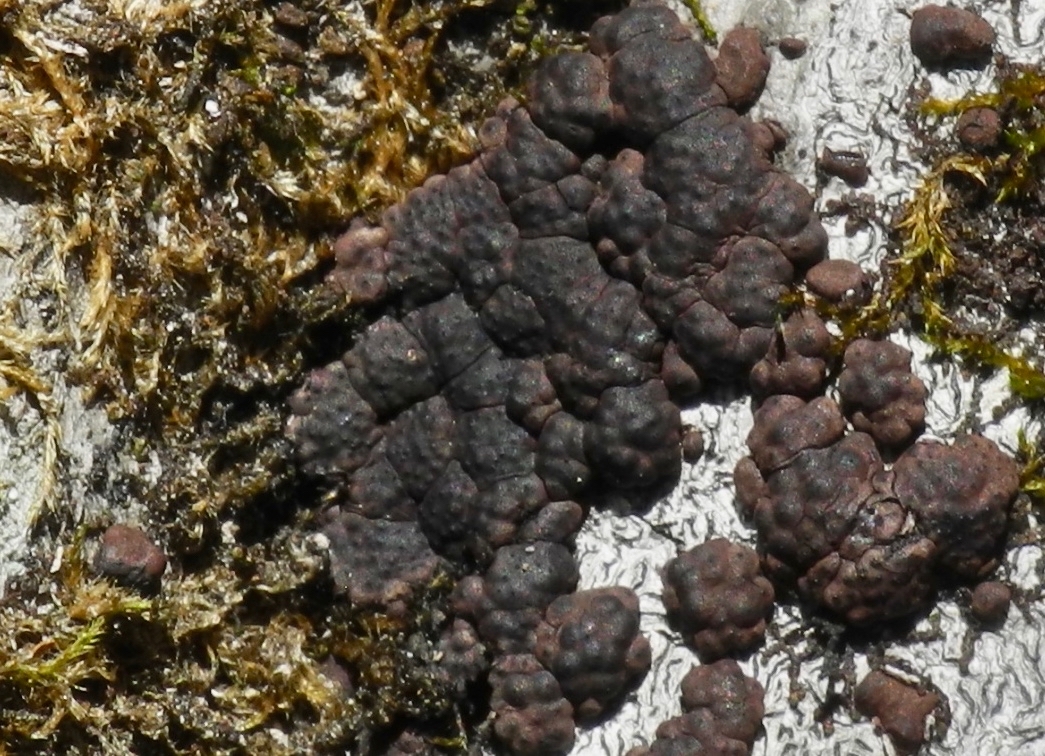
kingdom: Fungi
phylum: Ascomycota
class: Sordariomycetes
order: Xylariales
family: Hypoxylaceae
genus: Jackrogersella
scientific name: Jackrogersella cohaerens
